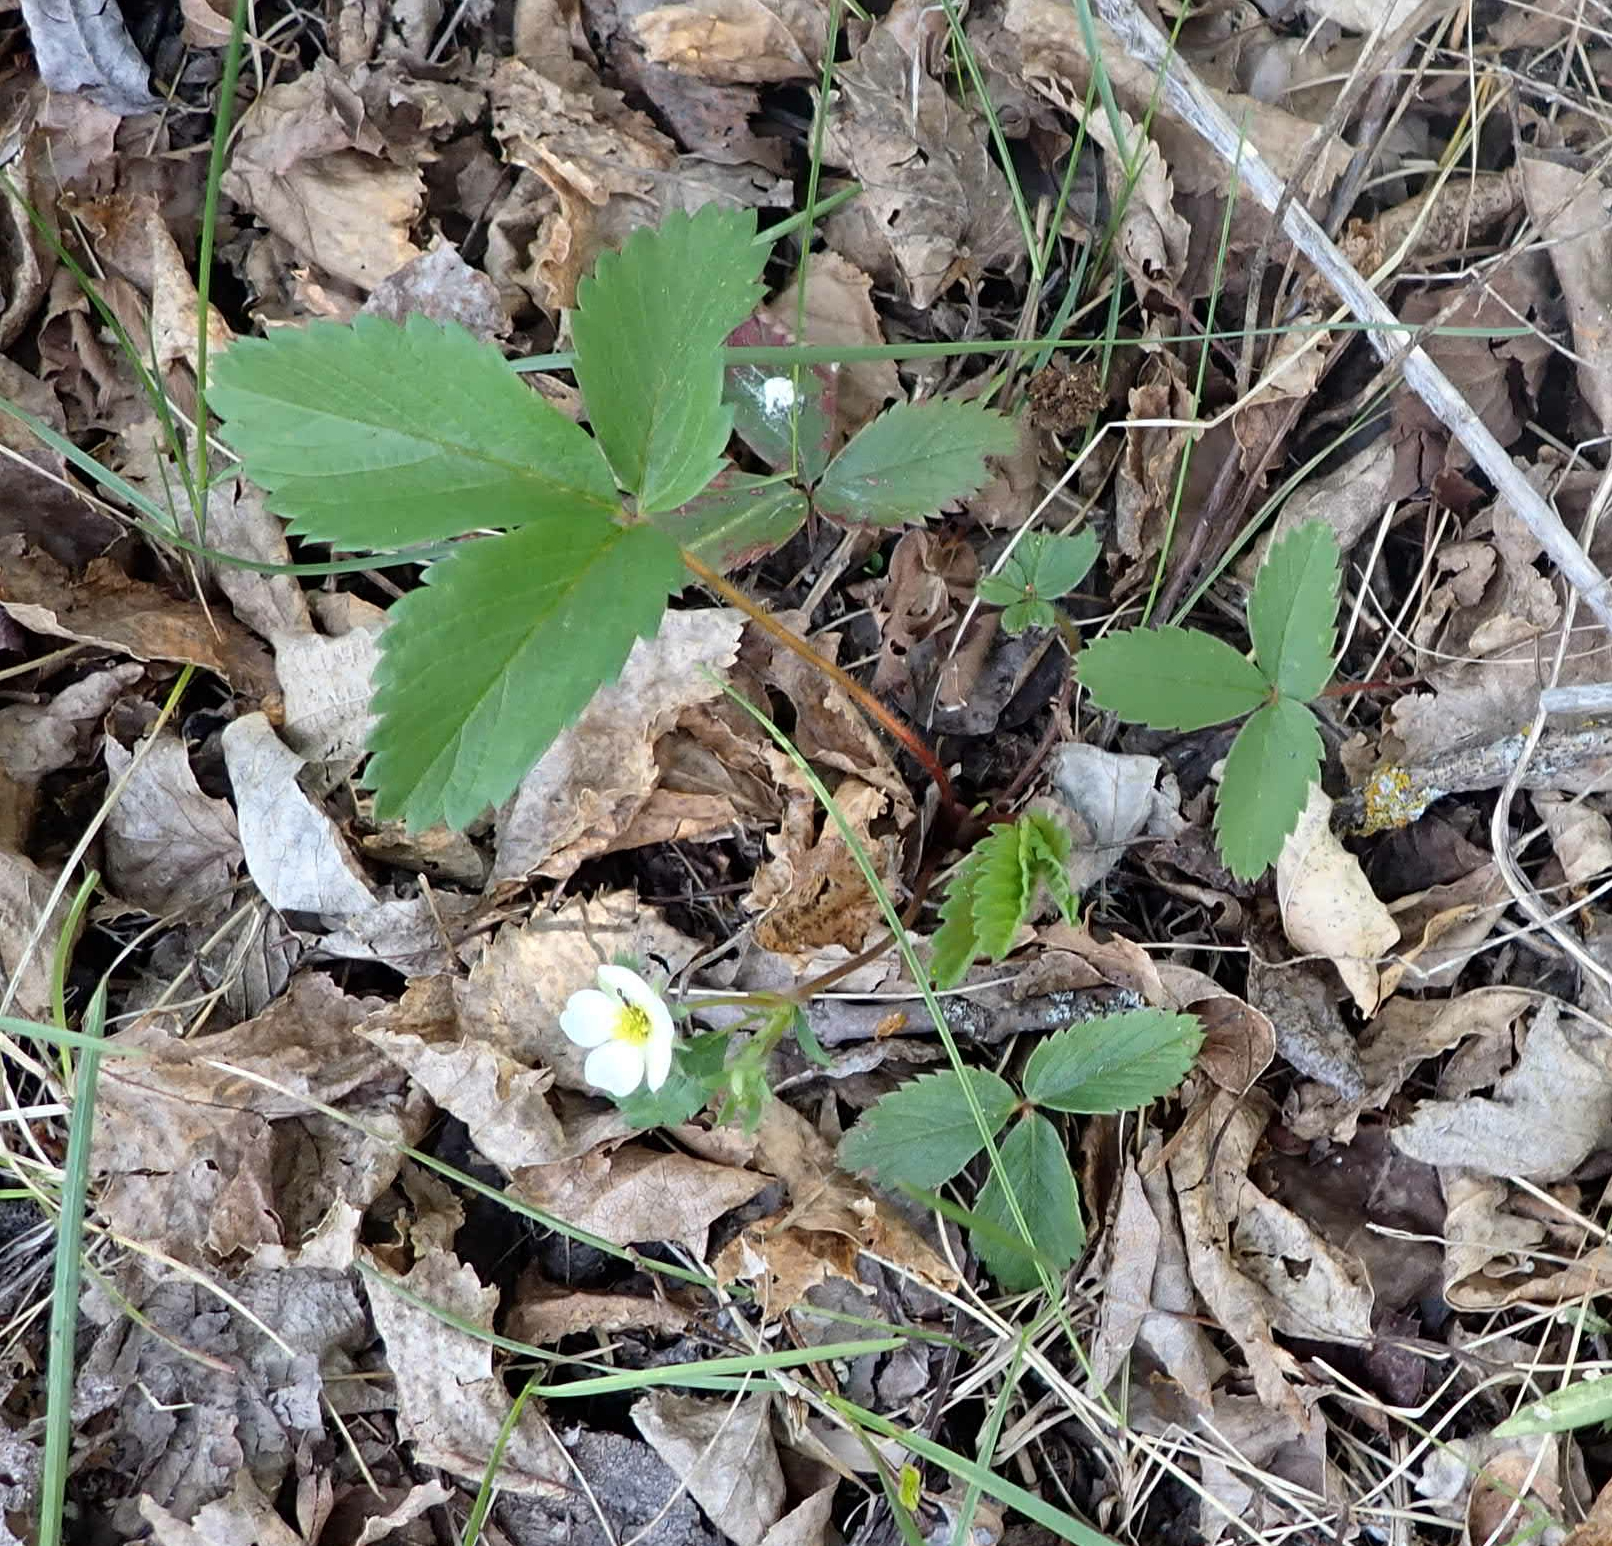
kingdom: Plantae
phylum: Tracheophyta
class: Magnoliopsida
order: Rosales
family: Rosaceae
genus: Fragaria
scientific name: Fragaria virginiana
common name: Thickleaved wild strawberry
